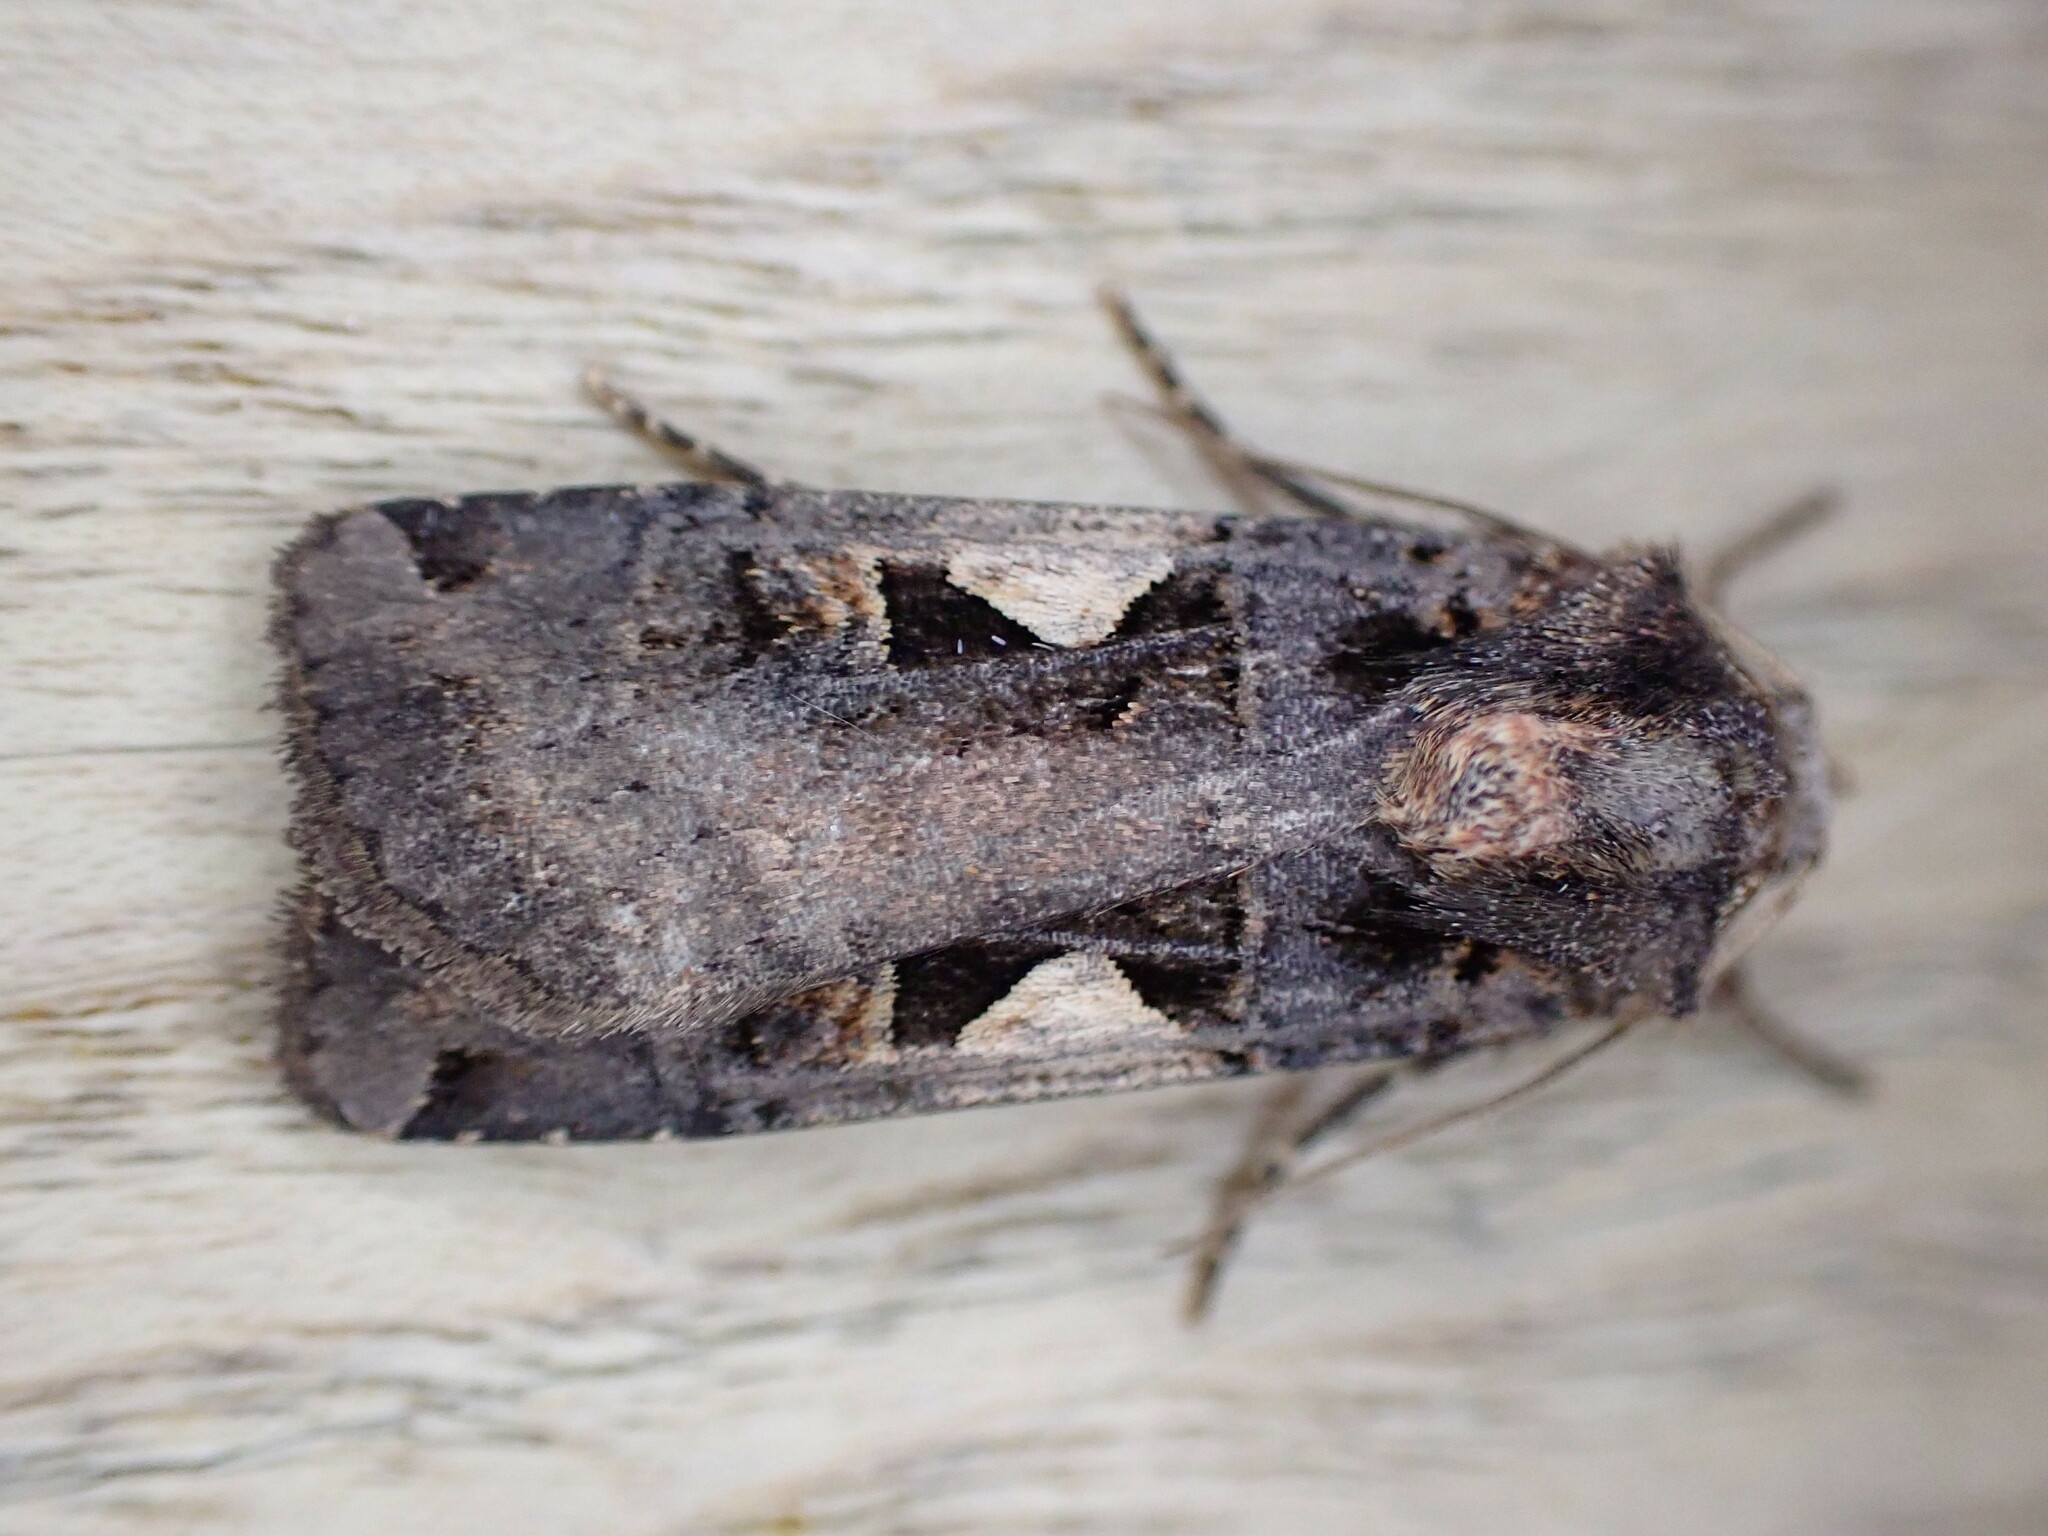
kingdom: Animalia
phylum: Arthropoda
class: Insecta
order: Lepidoptera
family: Noctuidae
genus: Xestia
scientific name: Xestia c-nigrum
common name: Setaceous hebrew character
